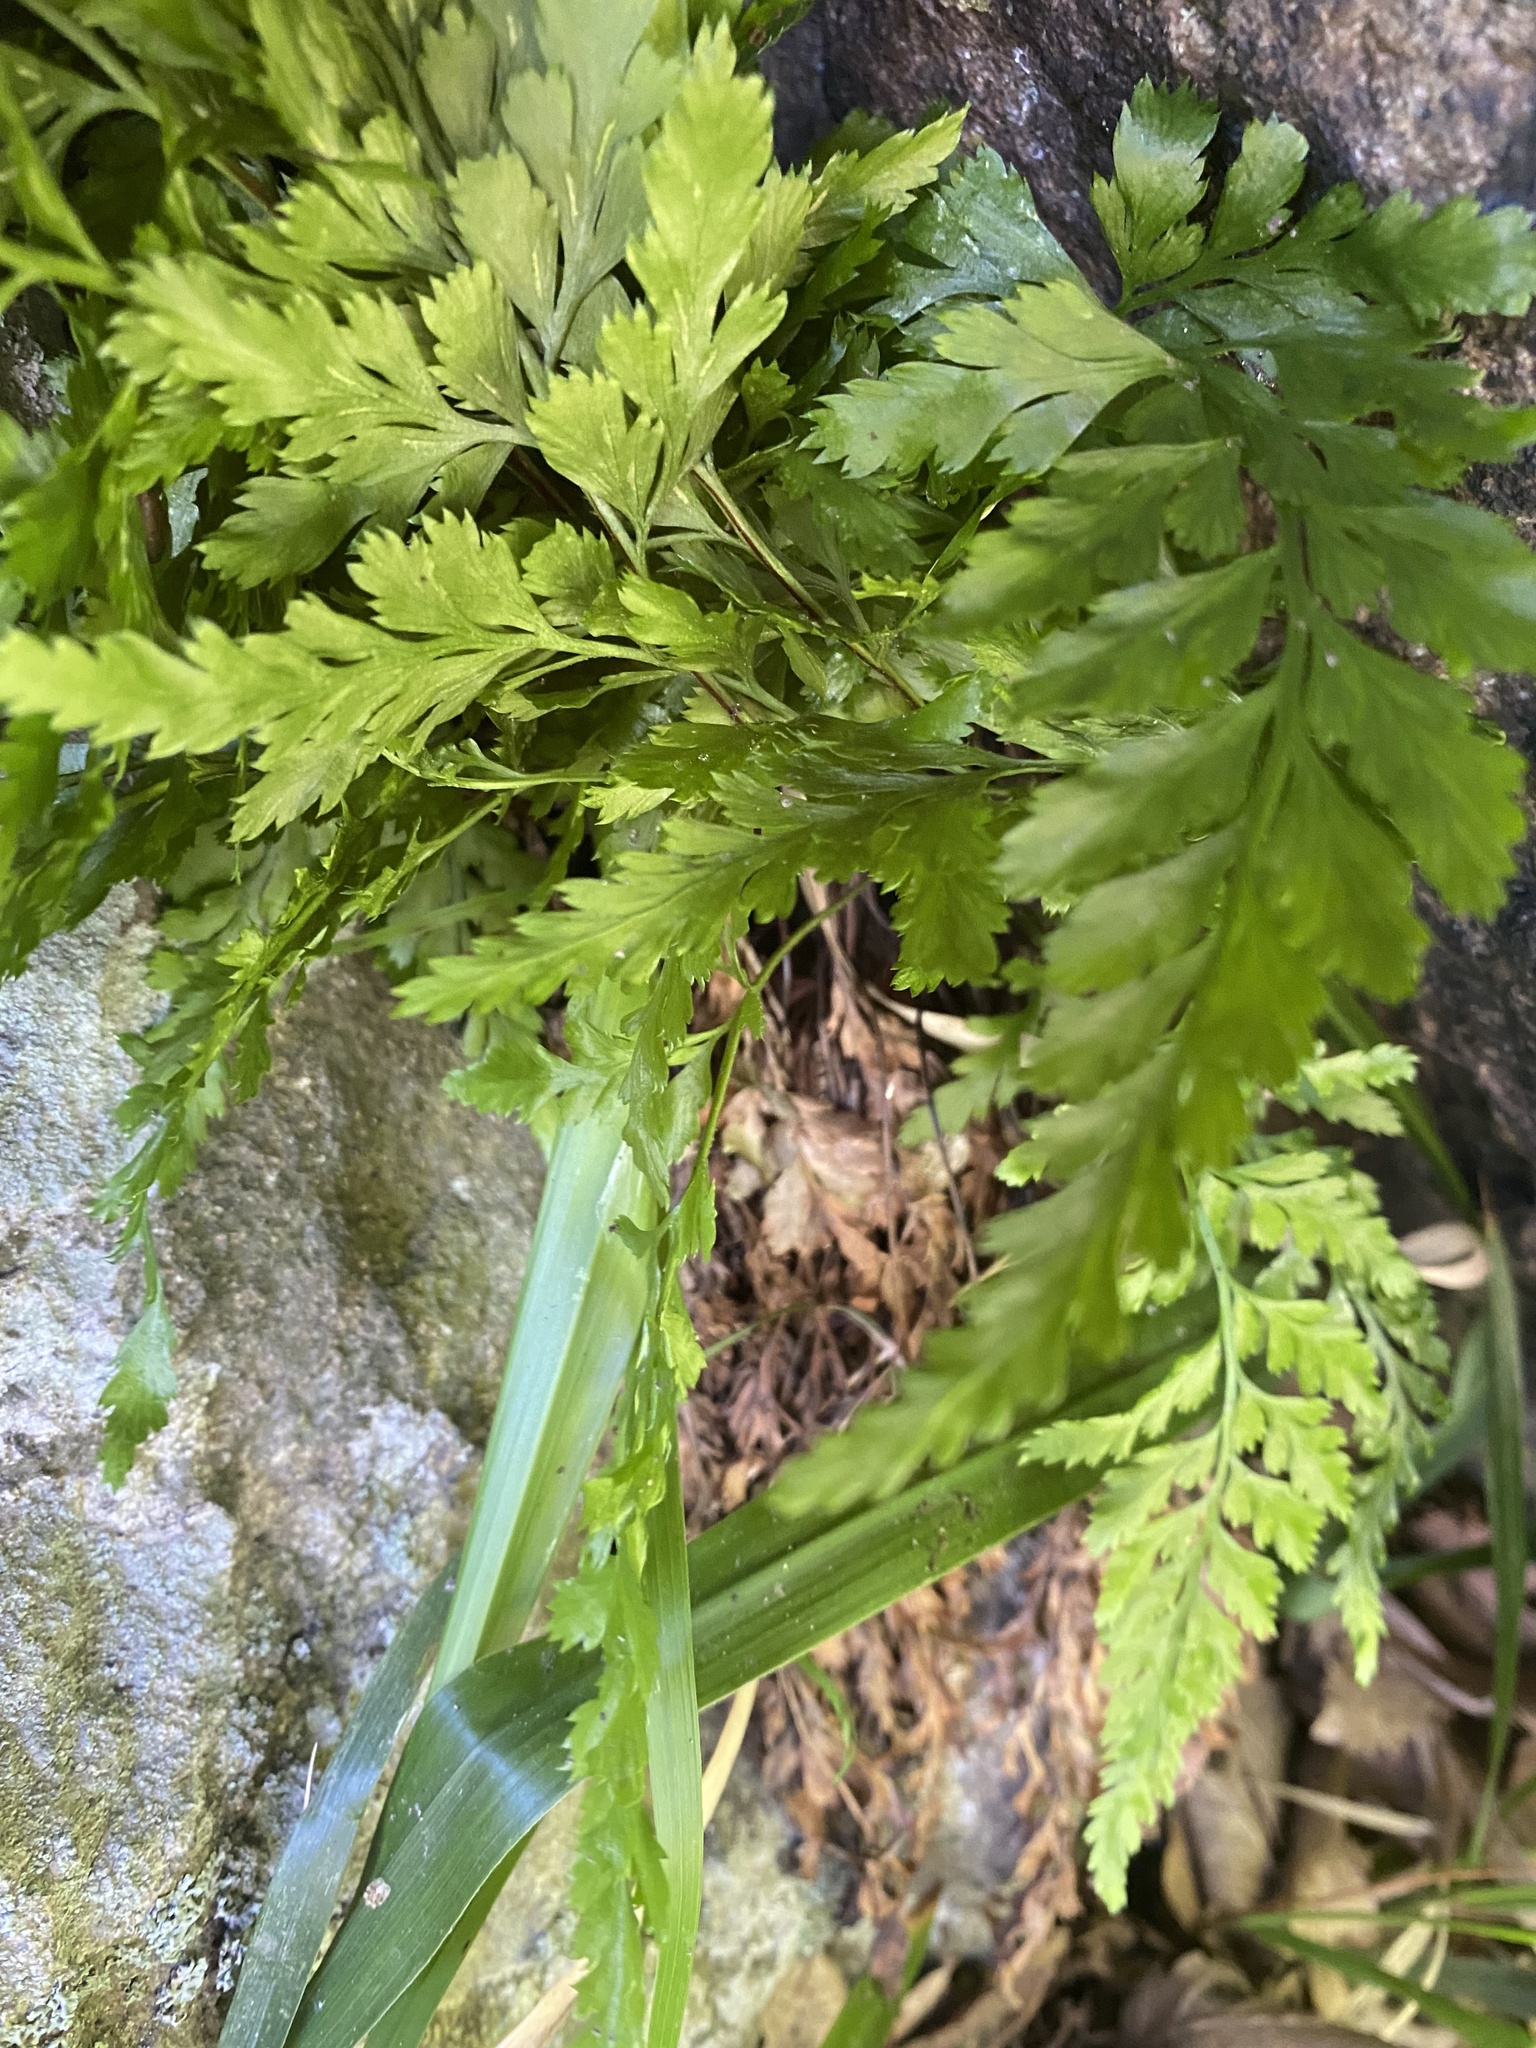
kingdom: Plantae
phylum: Tracheophyta
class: Polypodiopsida
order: Polypodiales
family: Aspleniaceae
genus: Asplenium
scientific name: Asplenium adiantum-nigrum
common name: Black spleenwort
